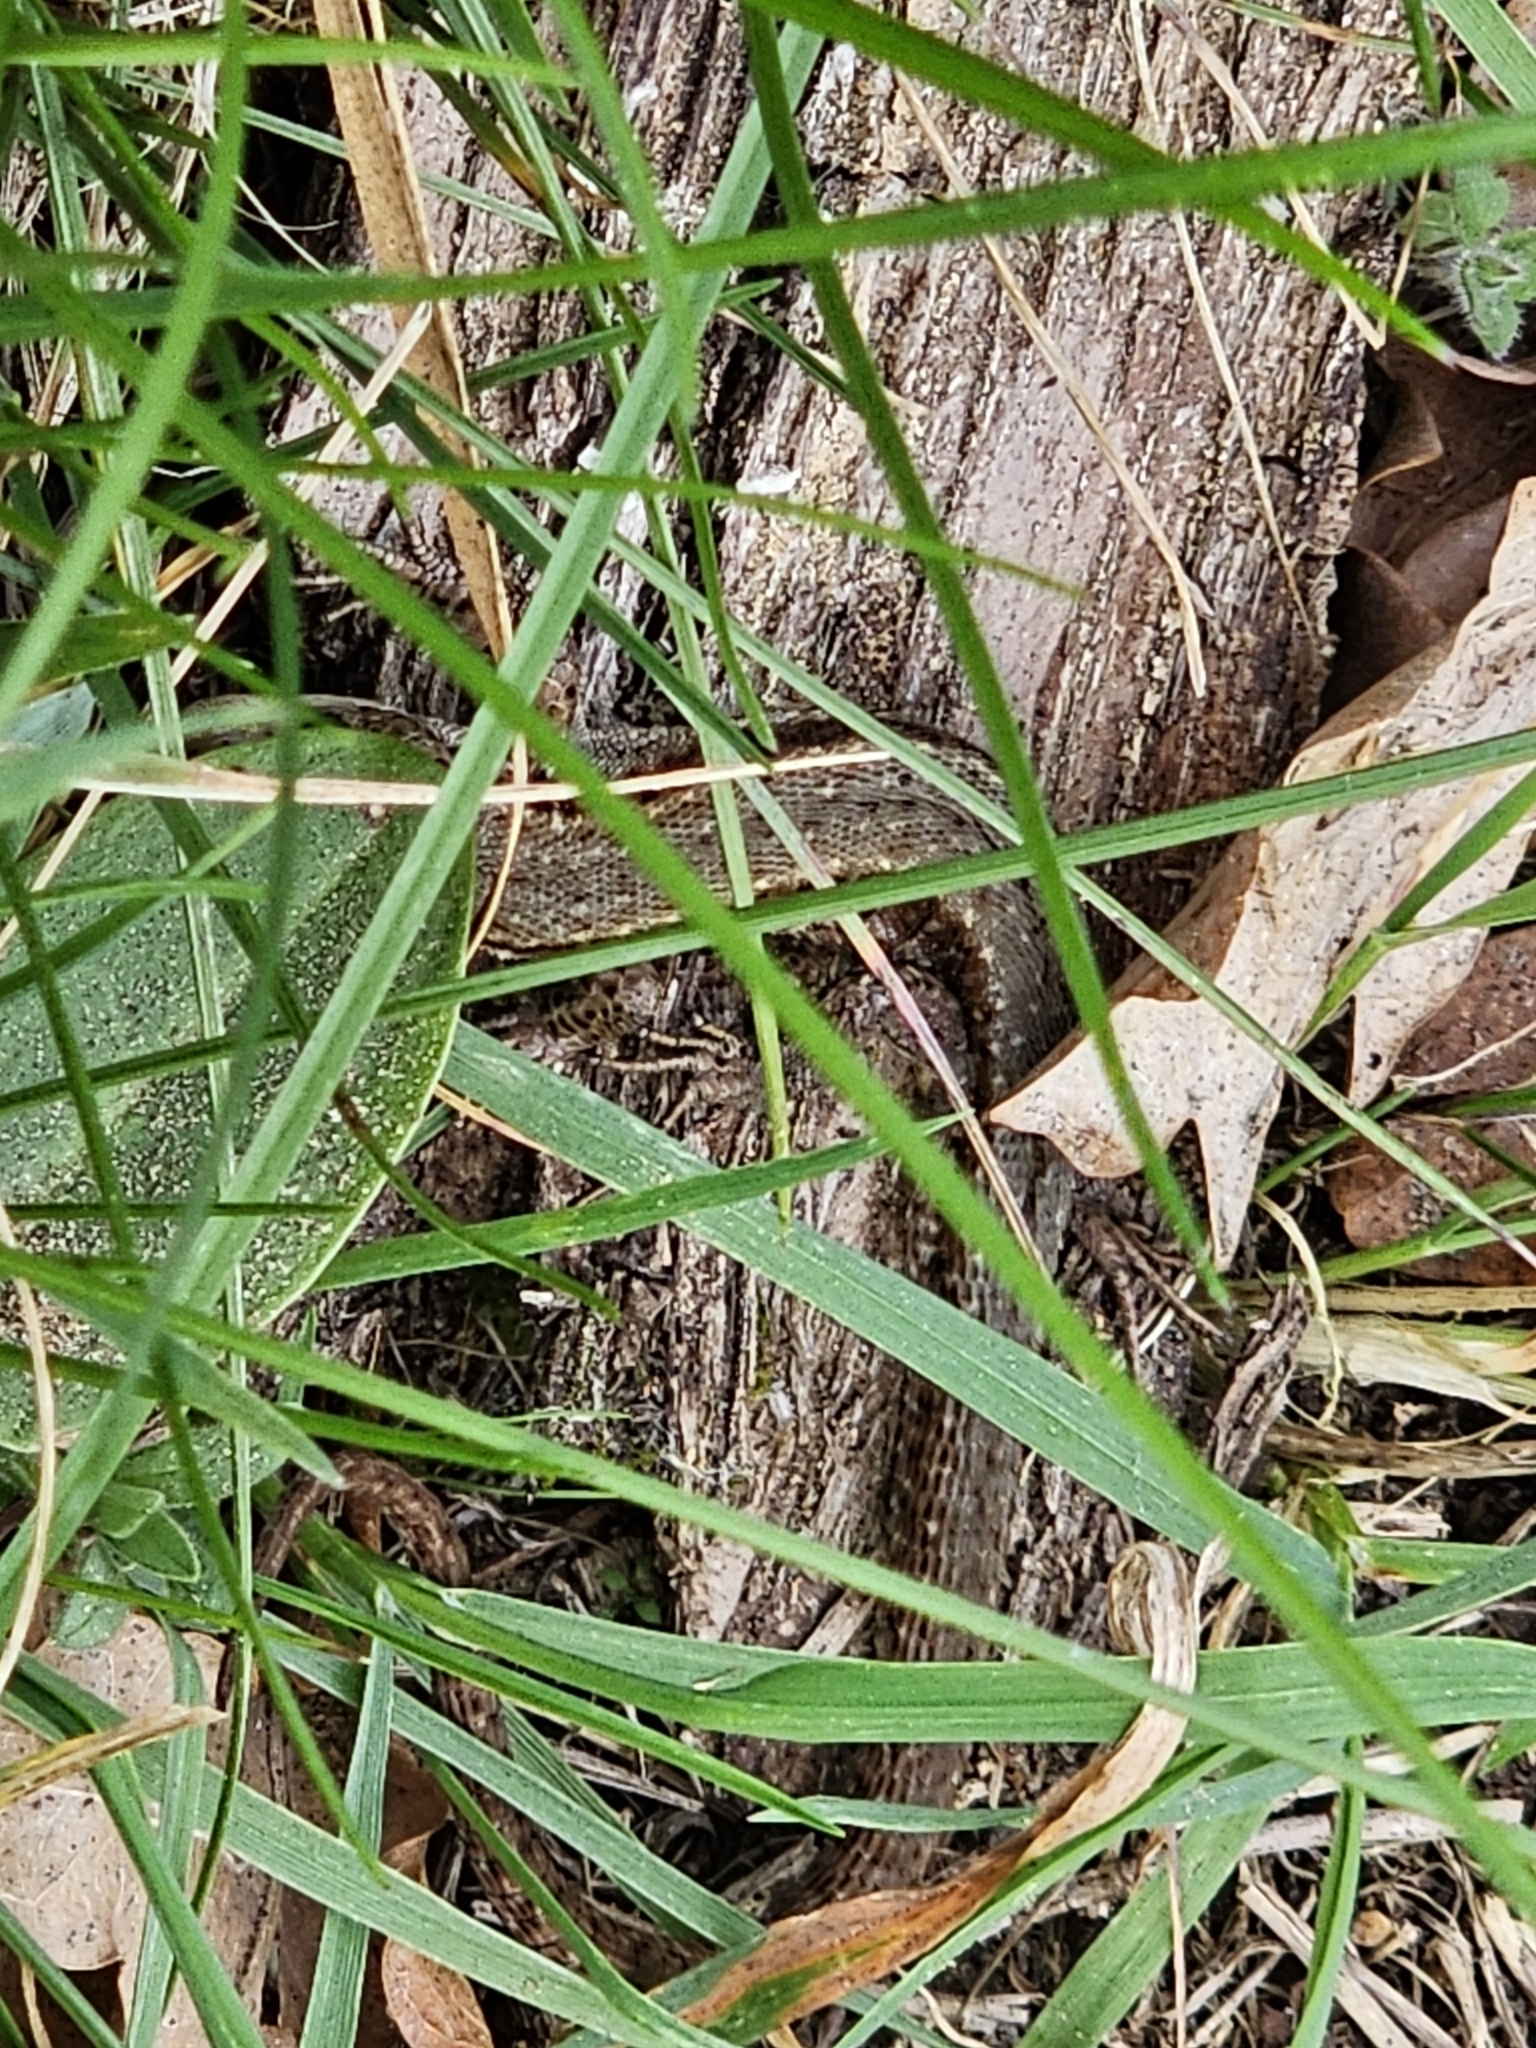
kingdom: Animalia
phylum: Chordata
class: Squamata
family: Lacertidae
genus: Zootoca
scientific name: Zootoca vivipara
